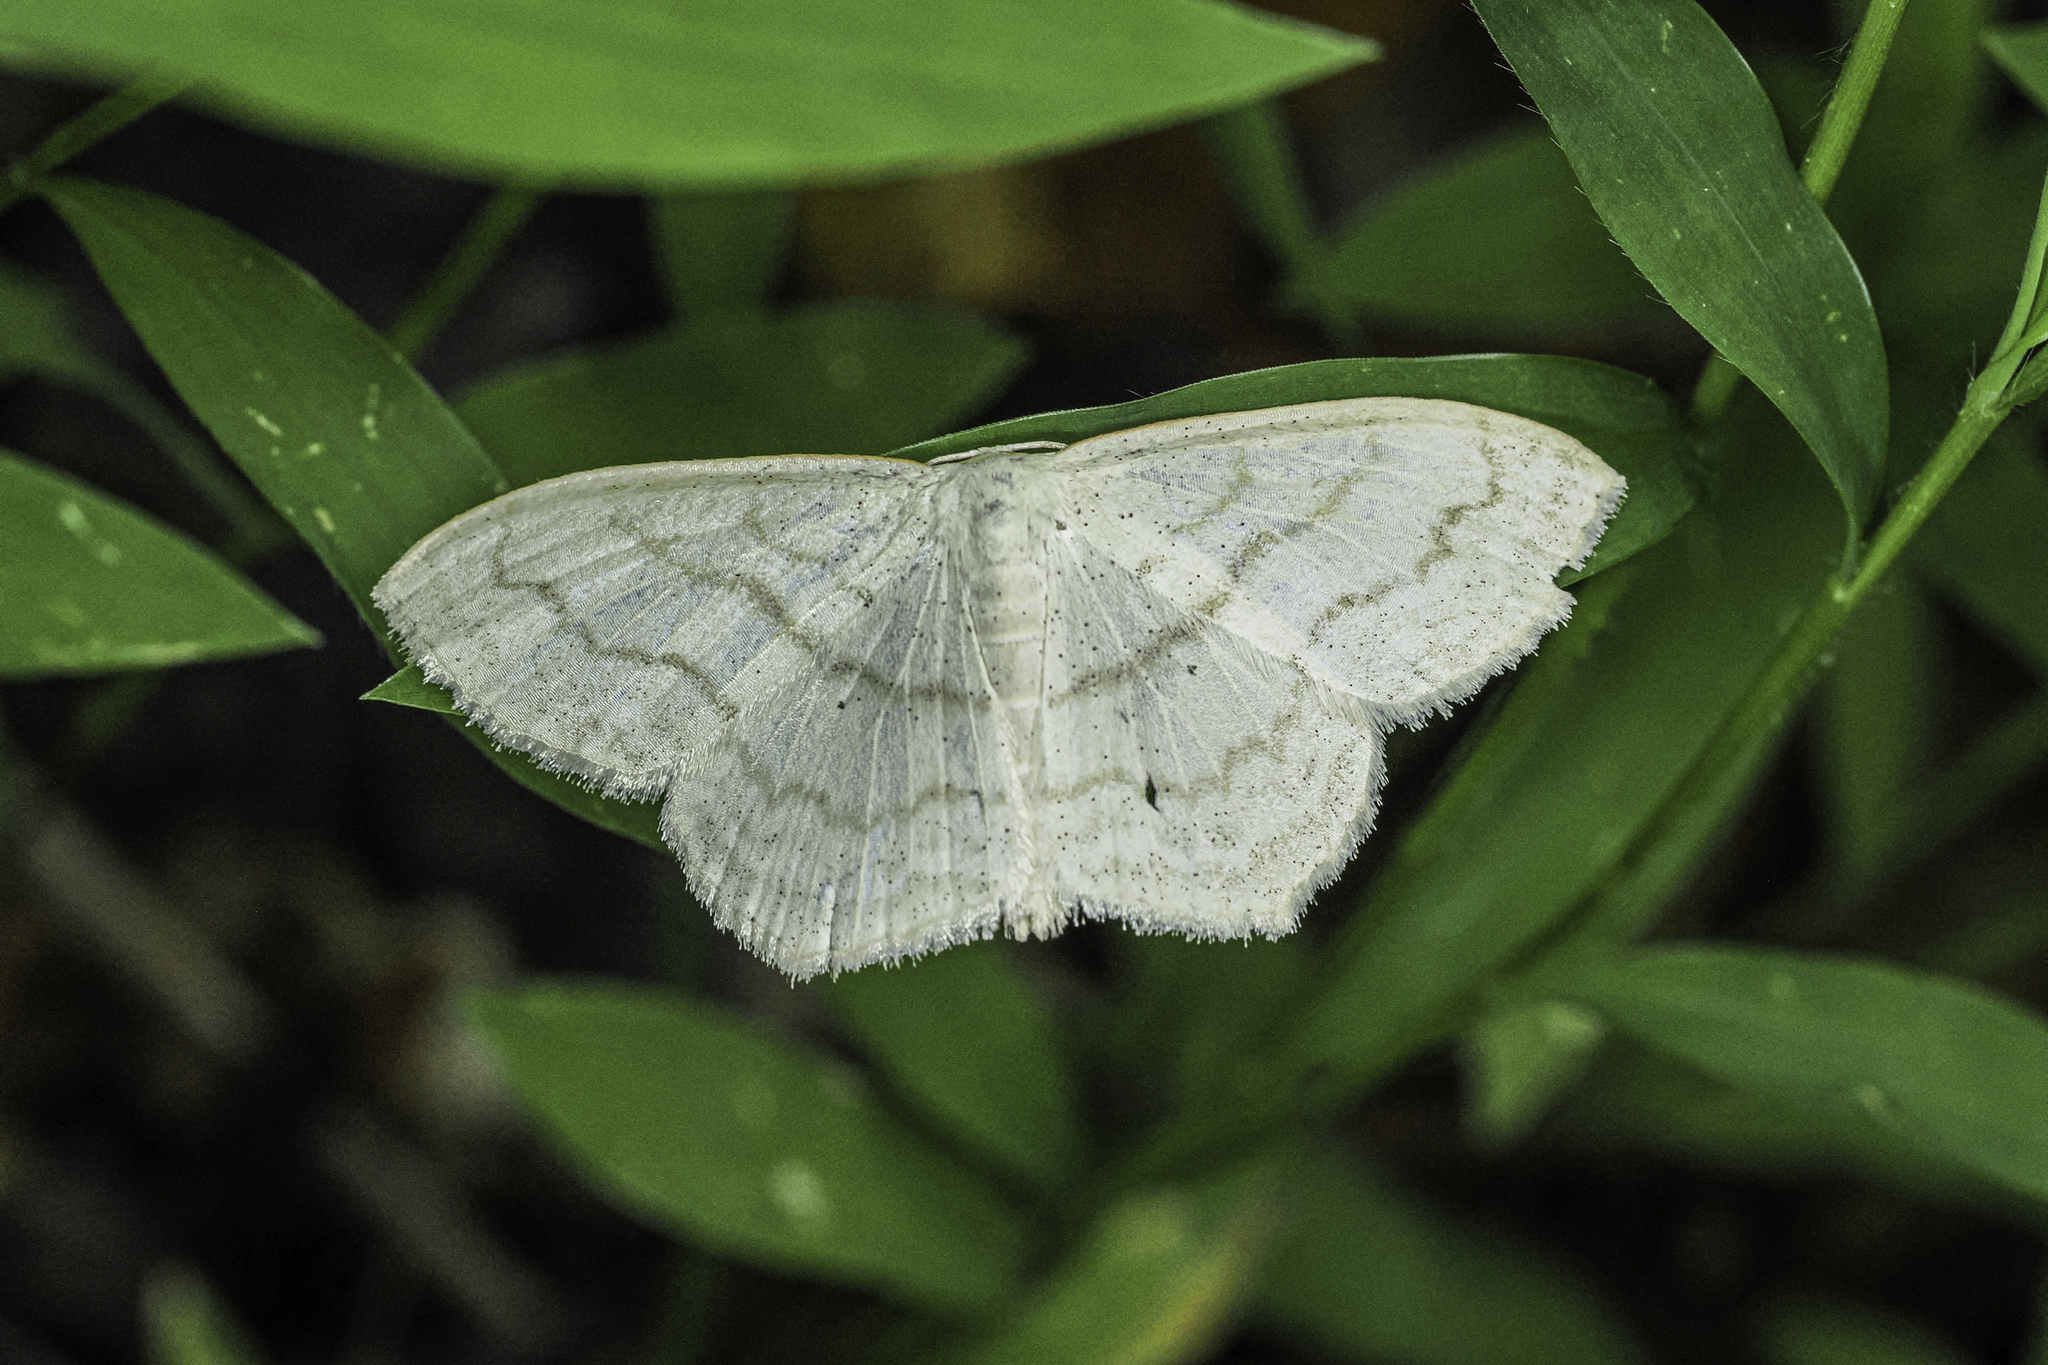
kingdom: Animalia
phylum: Arthropoda
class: Insecta
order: Lepidoptera
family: Geometridae
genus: Scopula
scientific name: Scopula limboundata
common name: Large lace border
